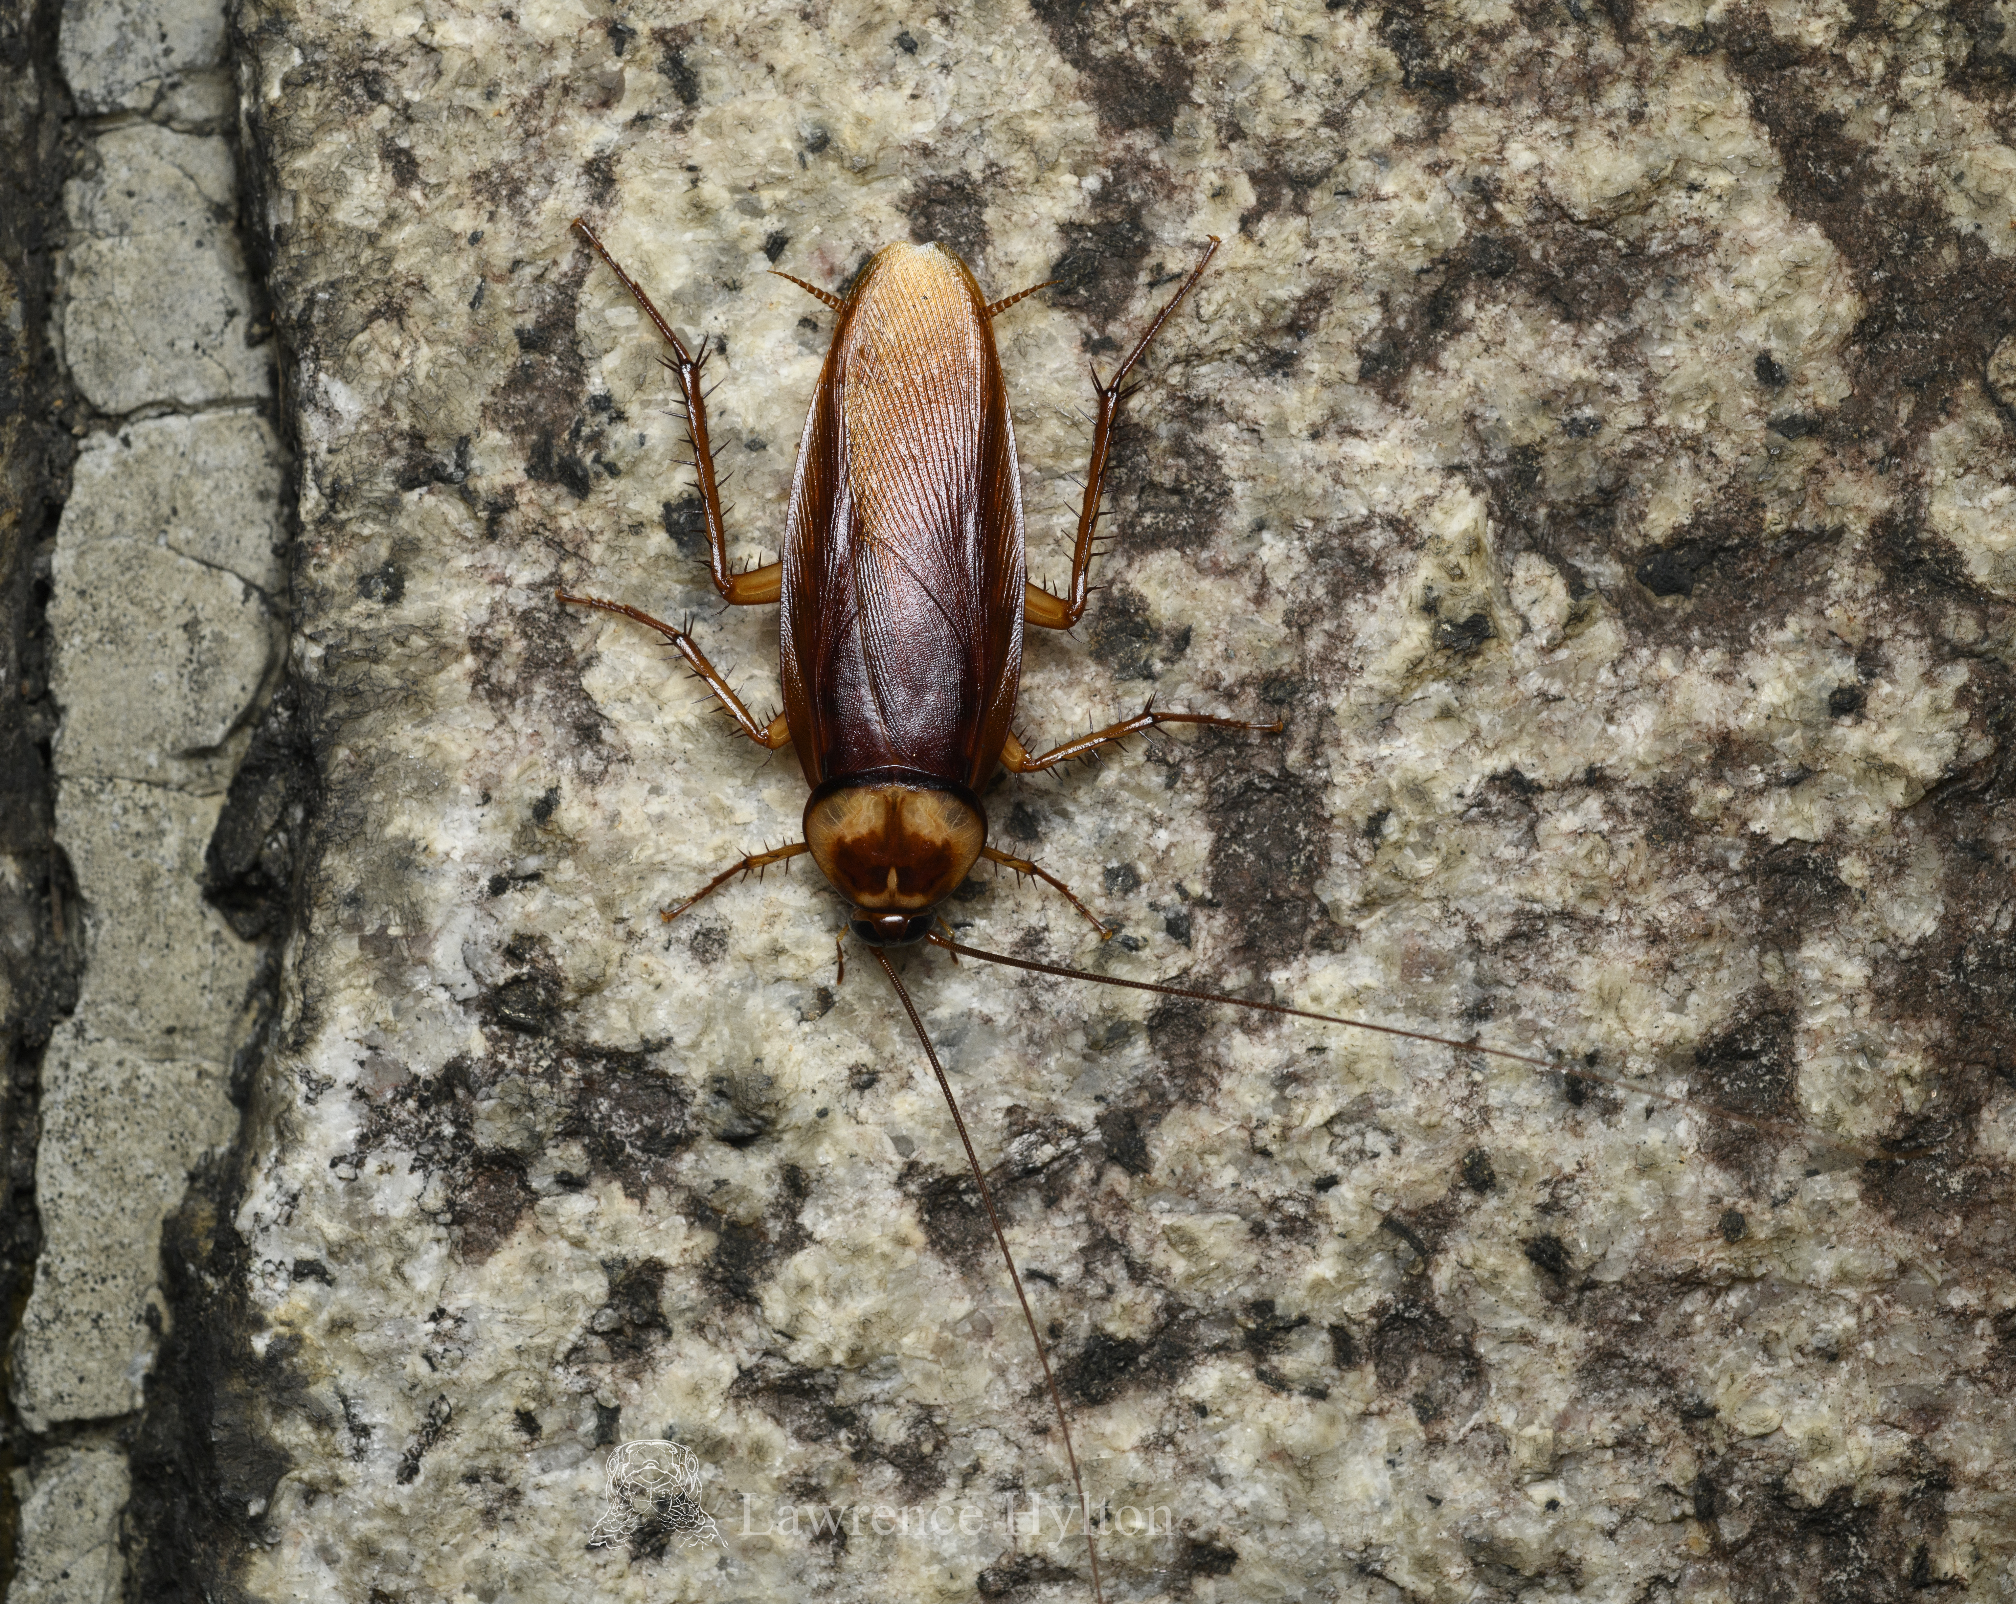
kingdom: Animalia
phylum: Arthropoda
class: Insecta
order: Blattodea
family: Blattidae
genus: Periplaneta
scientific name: Periplaneta americana
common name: American cockroach
